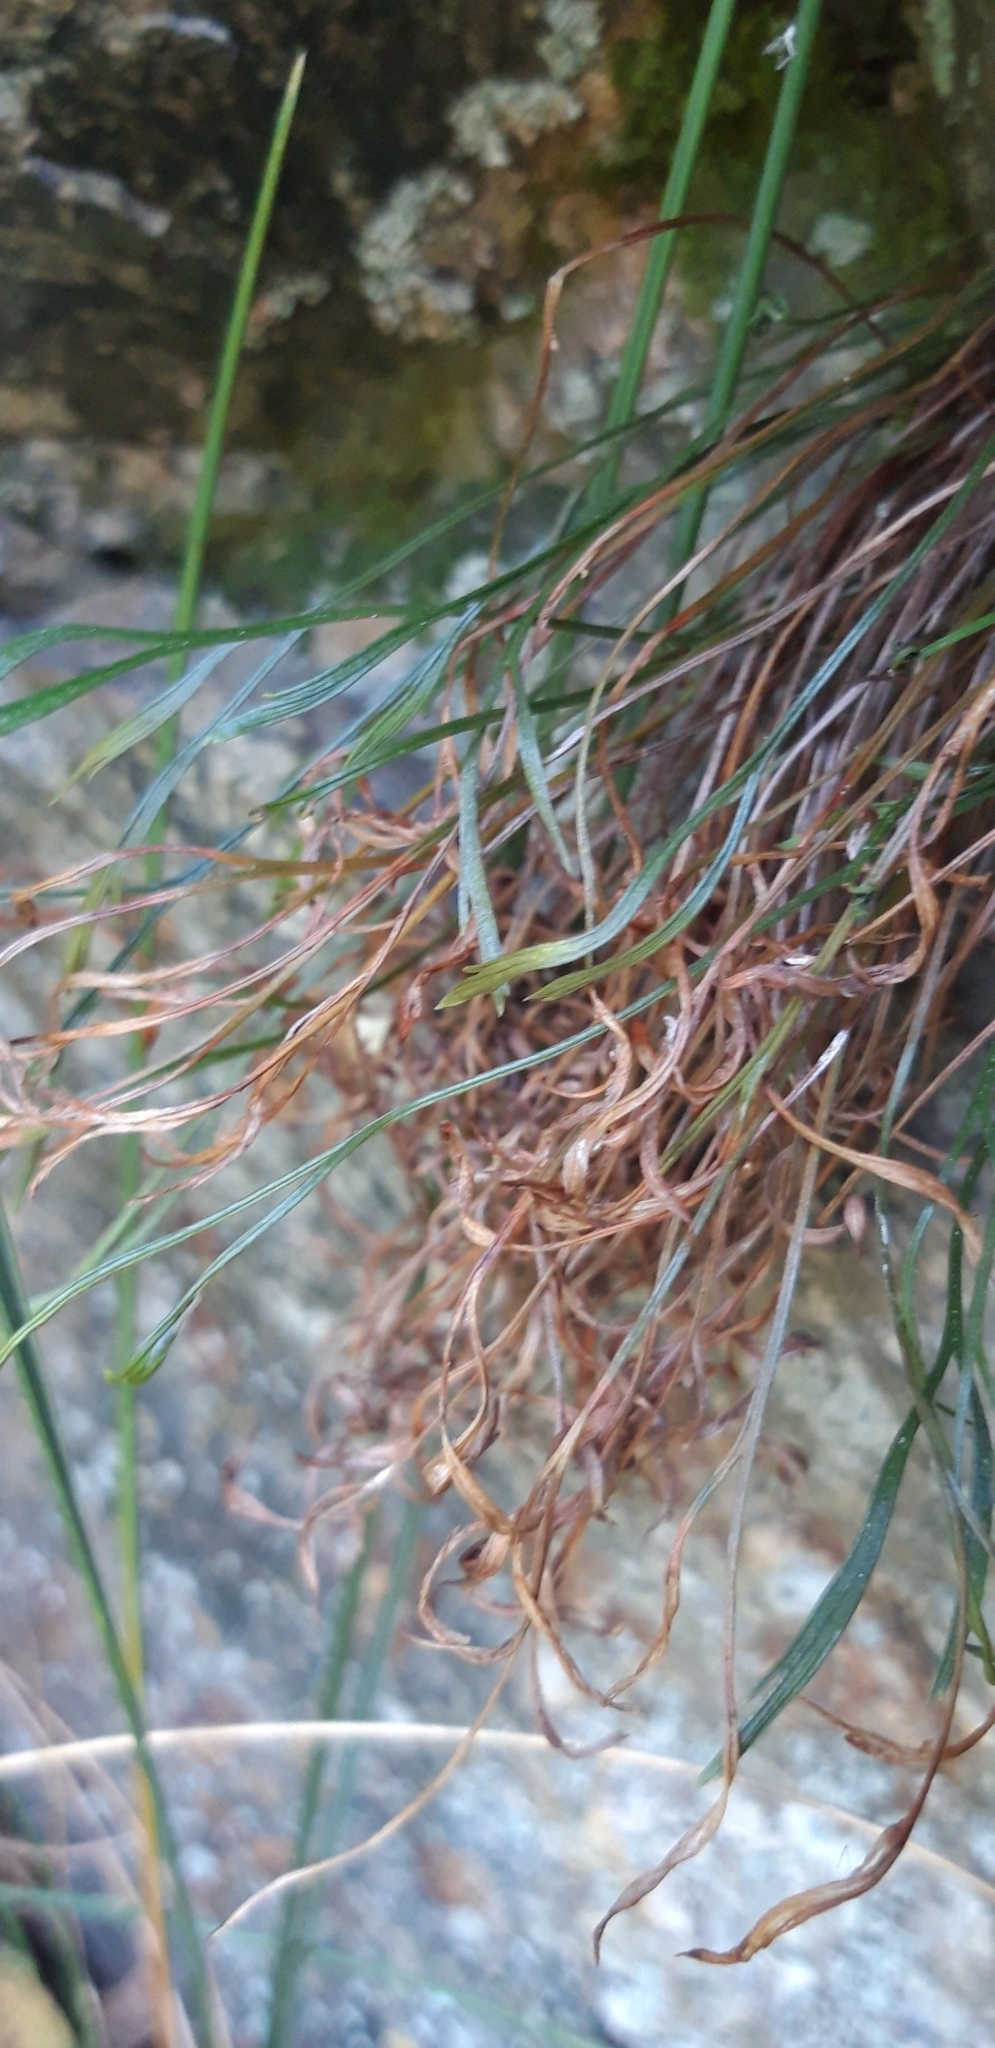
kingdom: Plantae
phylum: Tracheophyta
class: Polypodiopsida
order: Polypodiales
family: Aspleniaceae
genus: Asplenium
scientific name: Asplenium septentrionale
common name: Forked spleenwort
